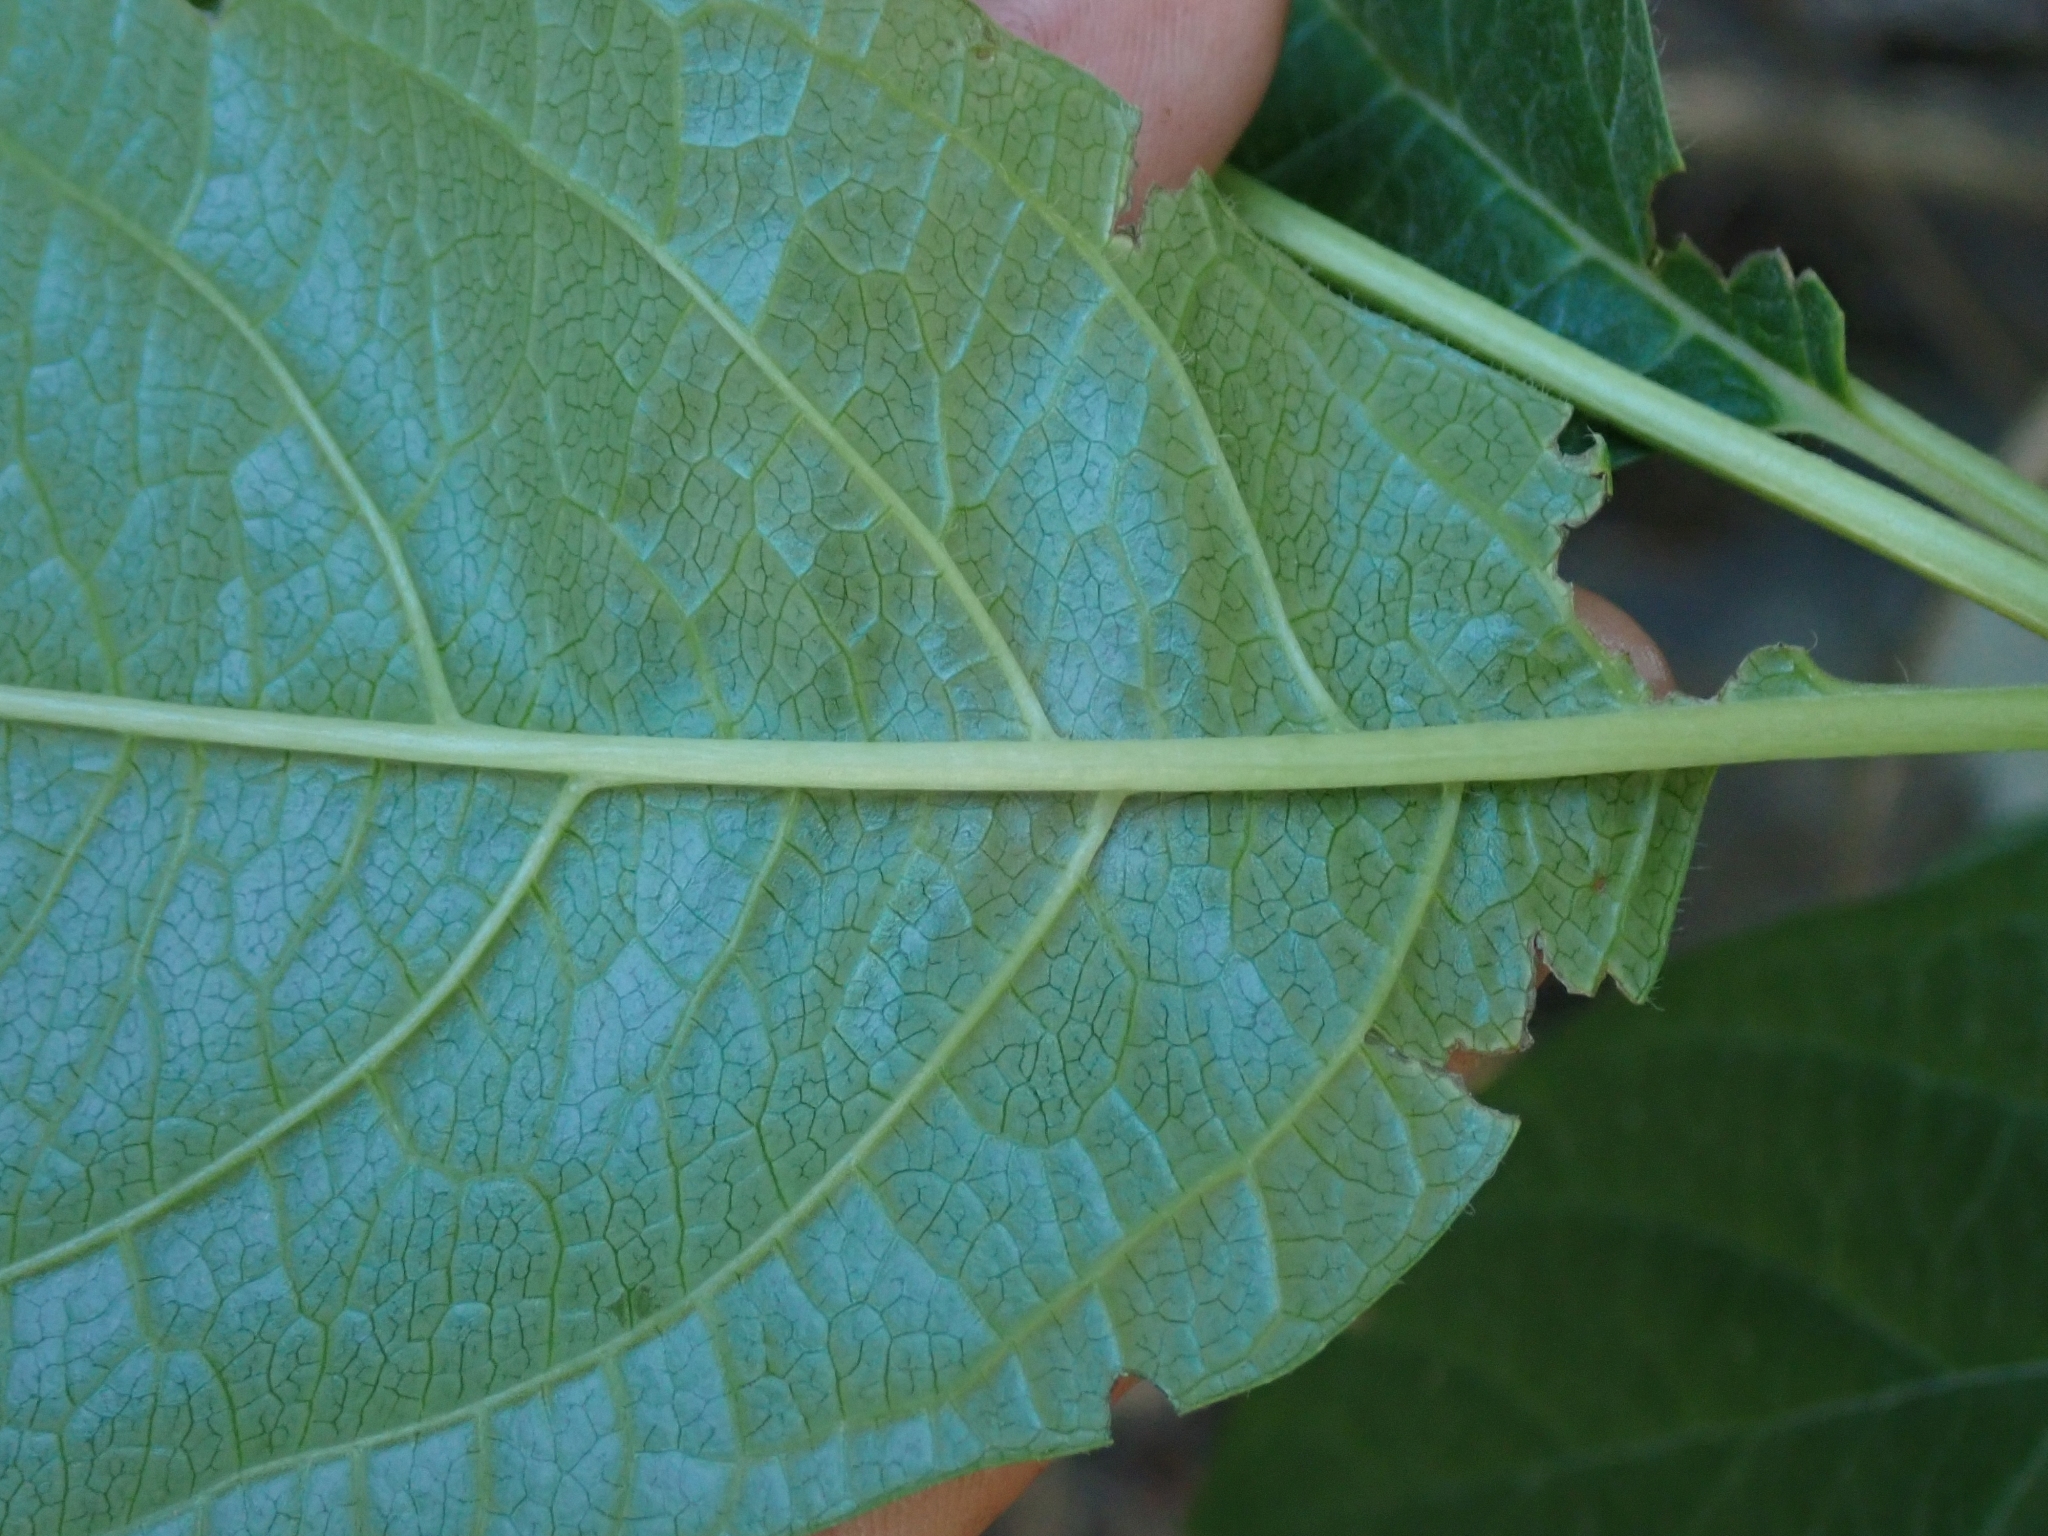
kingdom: Plantae
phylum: Tracheophyta
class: Magnoliopsida
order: Dipsacales
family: Caprifoliaceae
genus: Lonicera
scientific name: Lonicera involucrata
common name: Californian honeysuckle
